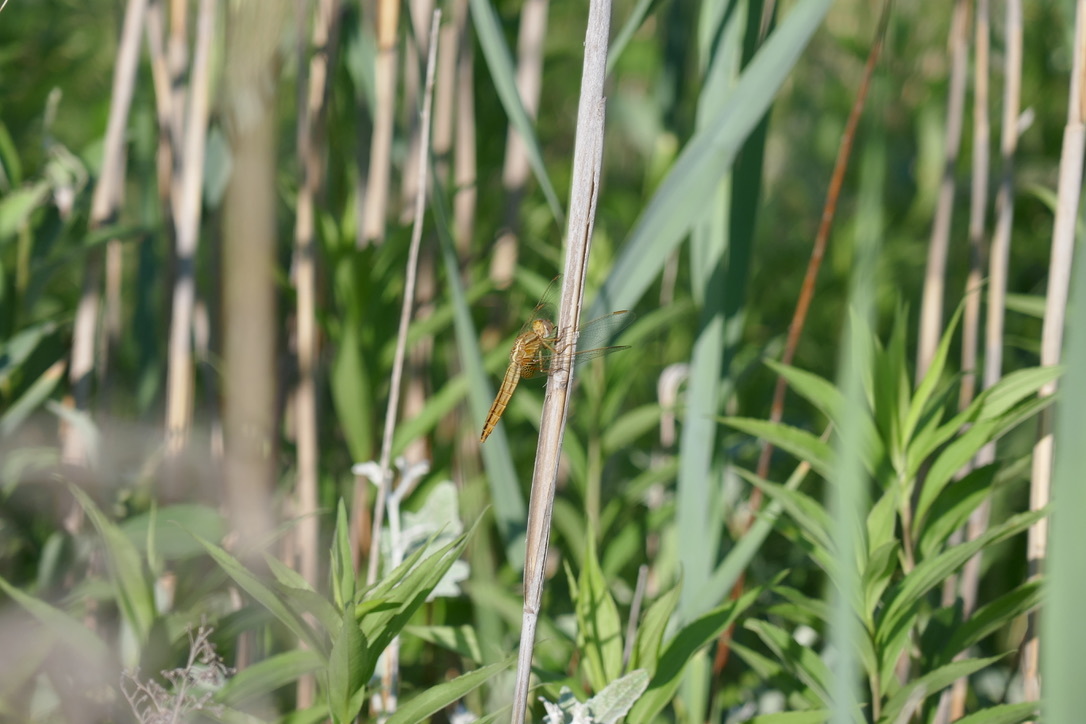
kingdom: Animalia
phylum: Arthropoda
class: Insecta
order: Odonata
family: Libellulidae
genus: Crocothemis
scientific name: Crocothemis erythraea
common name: Scarlet dragonfly
